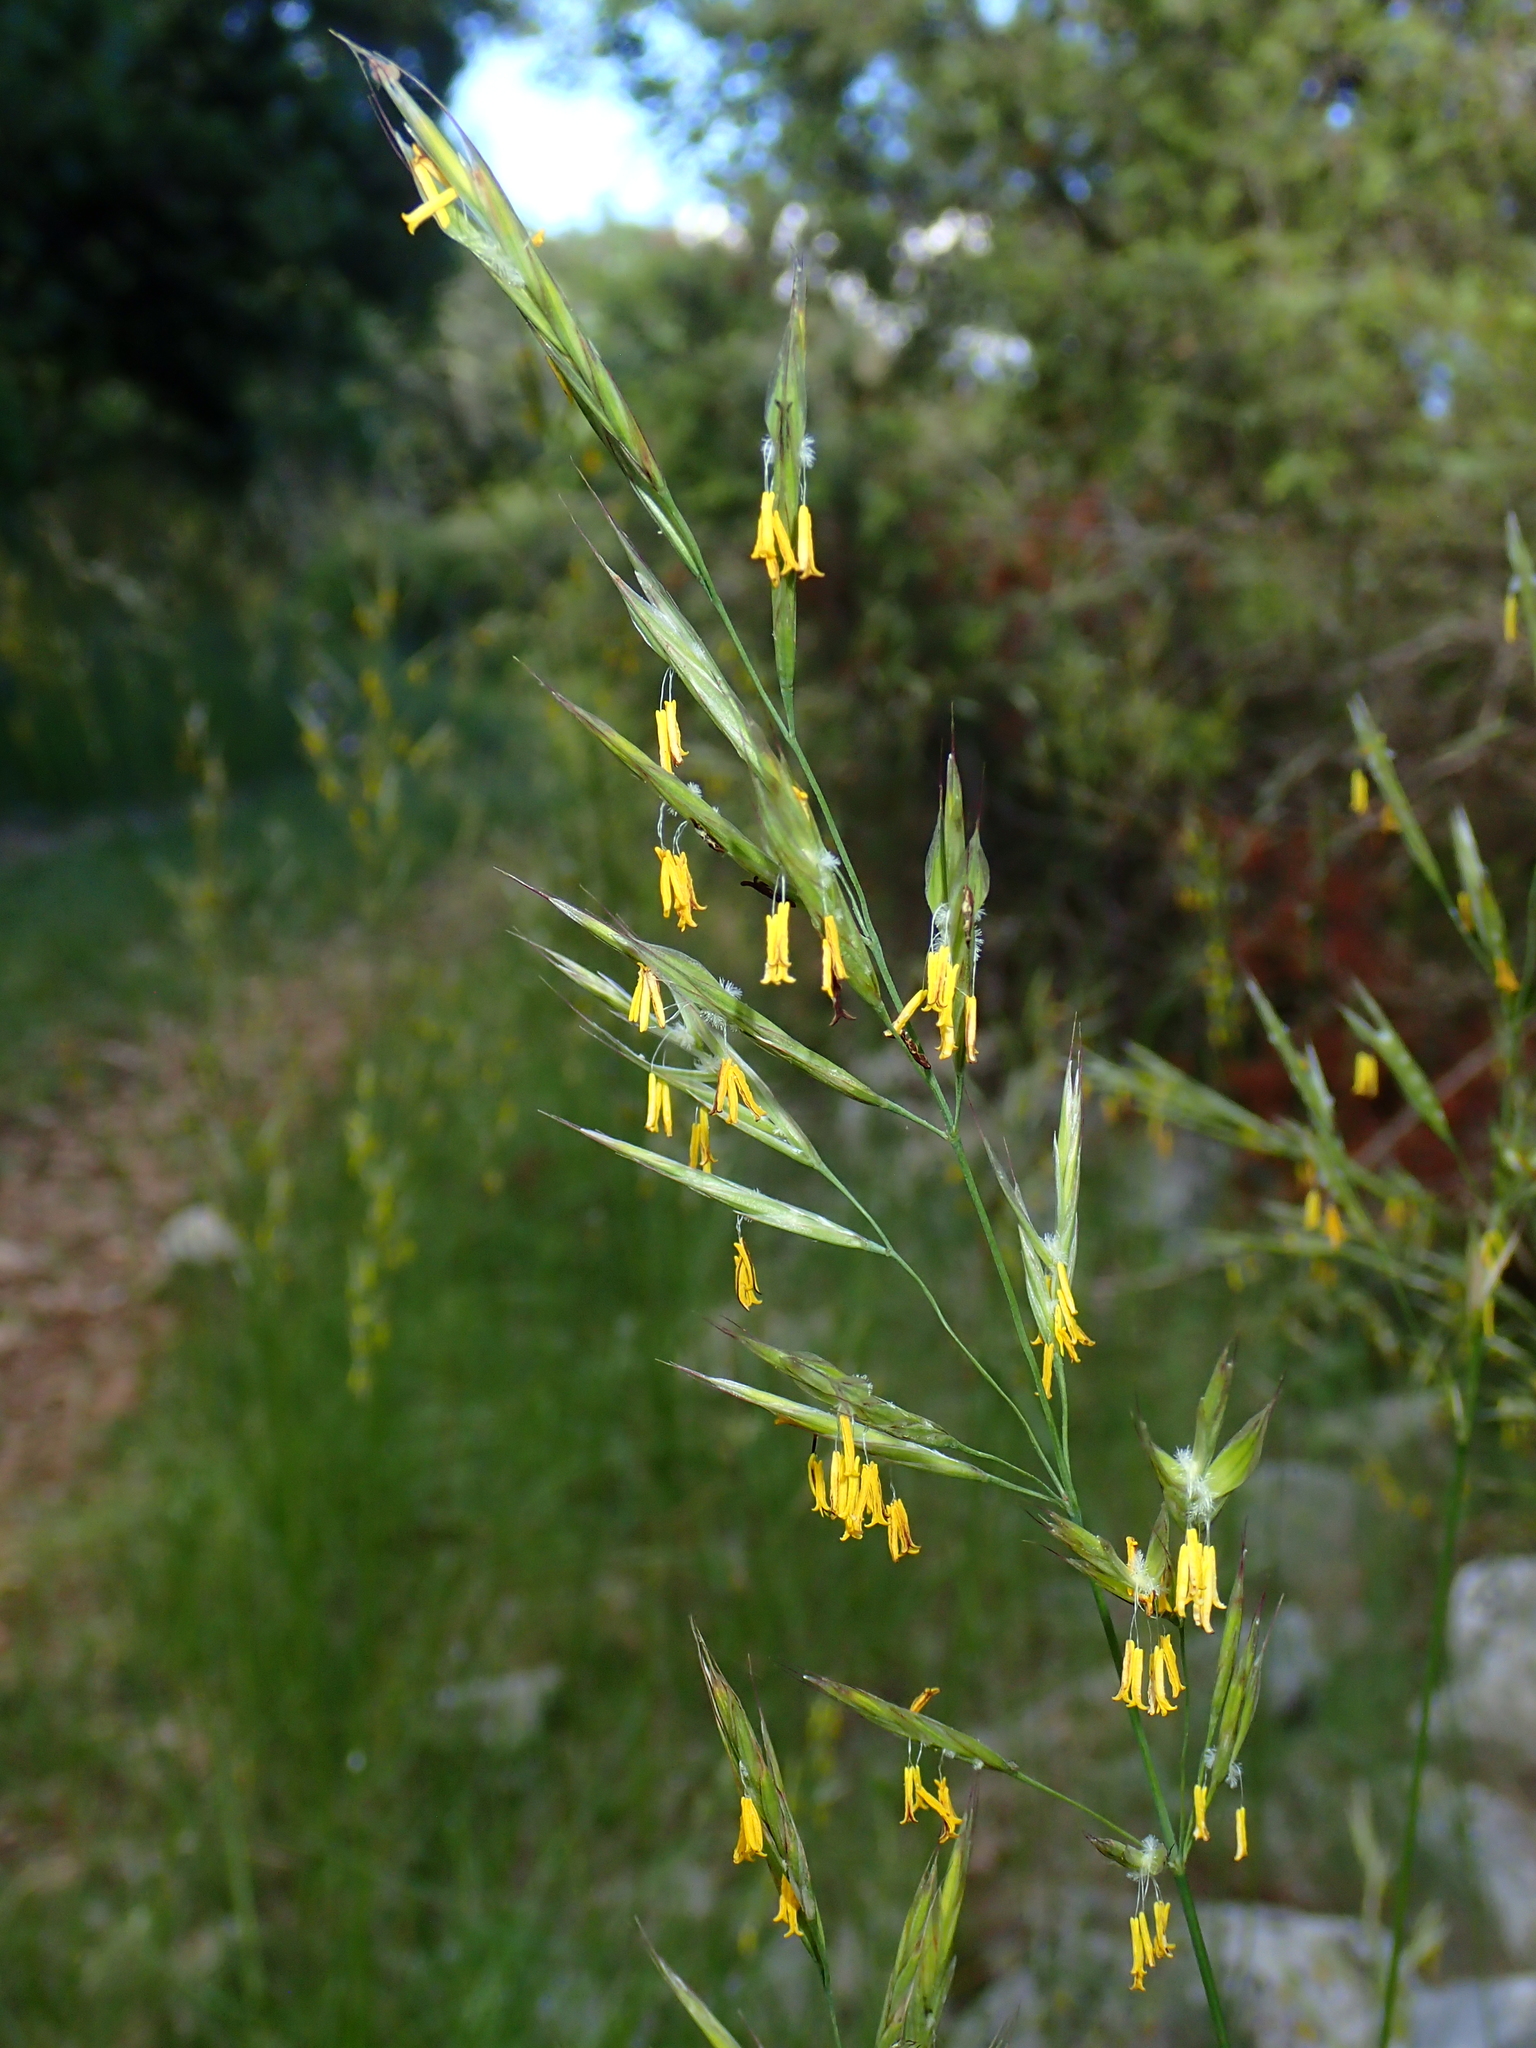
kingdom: Plantae
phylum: Tracheophyta
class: Liliopsida
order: Poales
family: Poaceae
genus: Bromus
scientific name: Bromus erectus
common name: Erect brome
